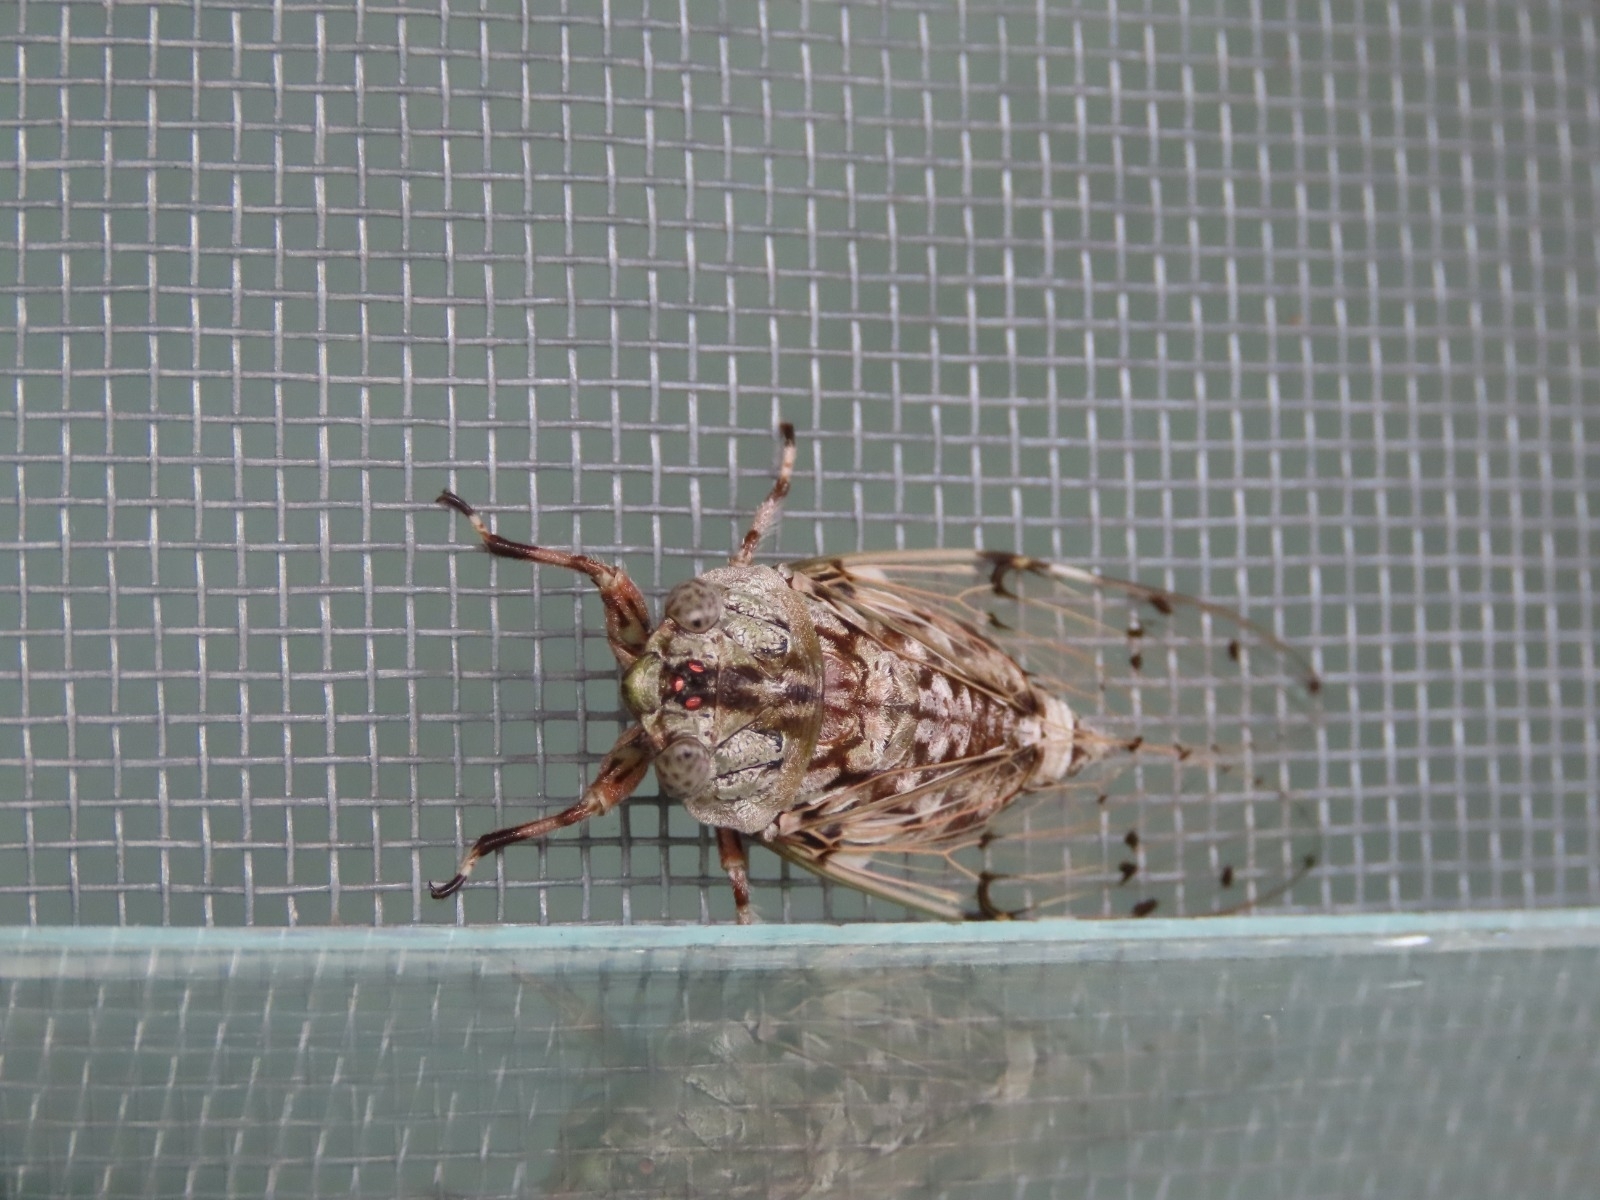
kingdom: Animalia
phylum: Arthropoda
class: Insecta
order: Hemiptera
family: Cicadidae
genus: Proarna
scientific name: Proarna insignis
